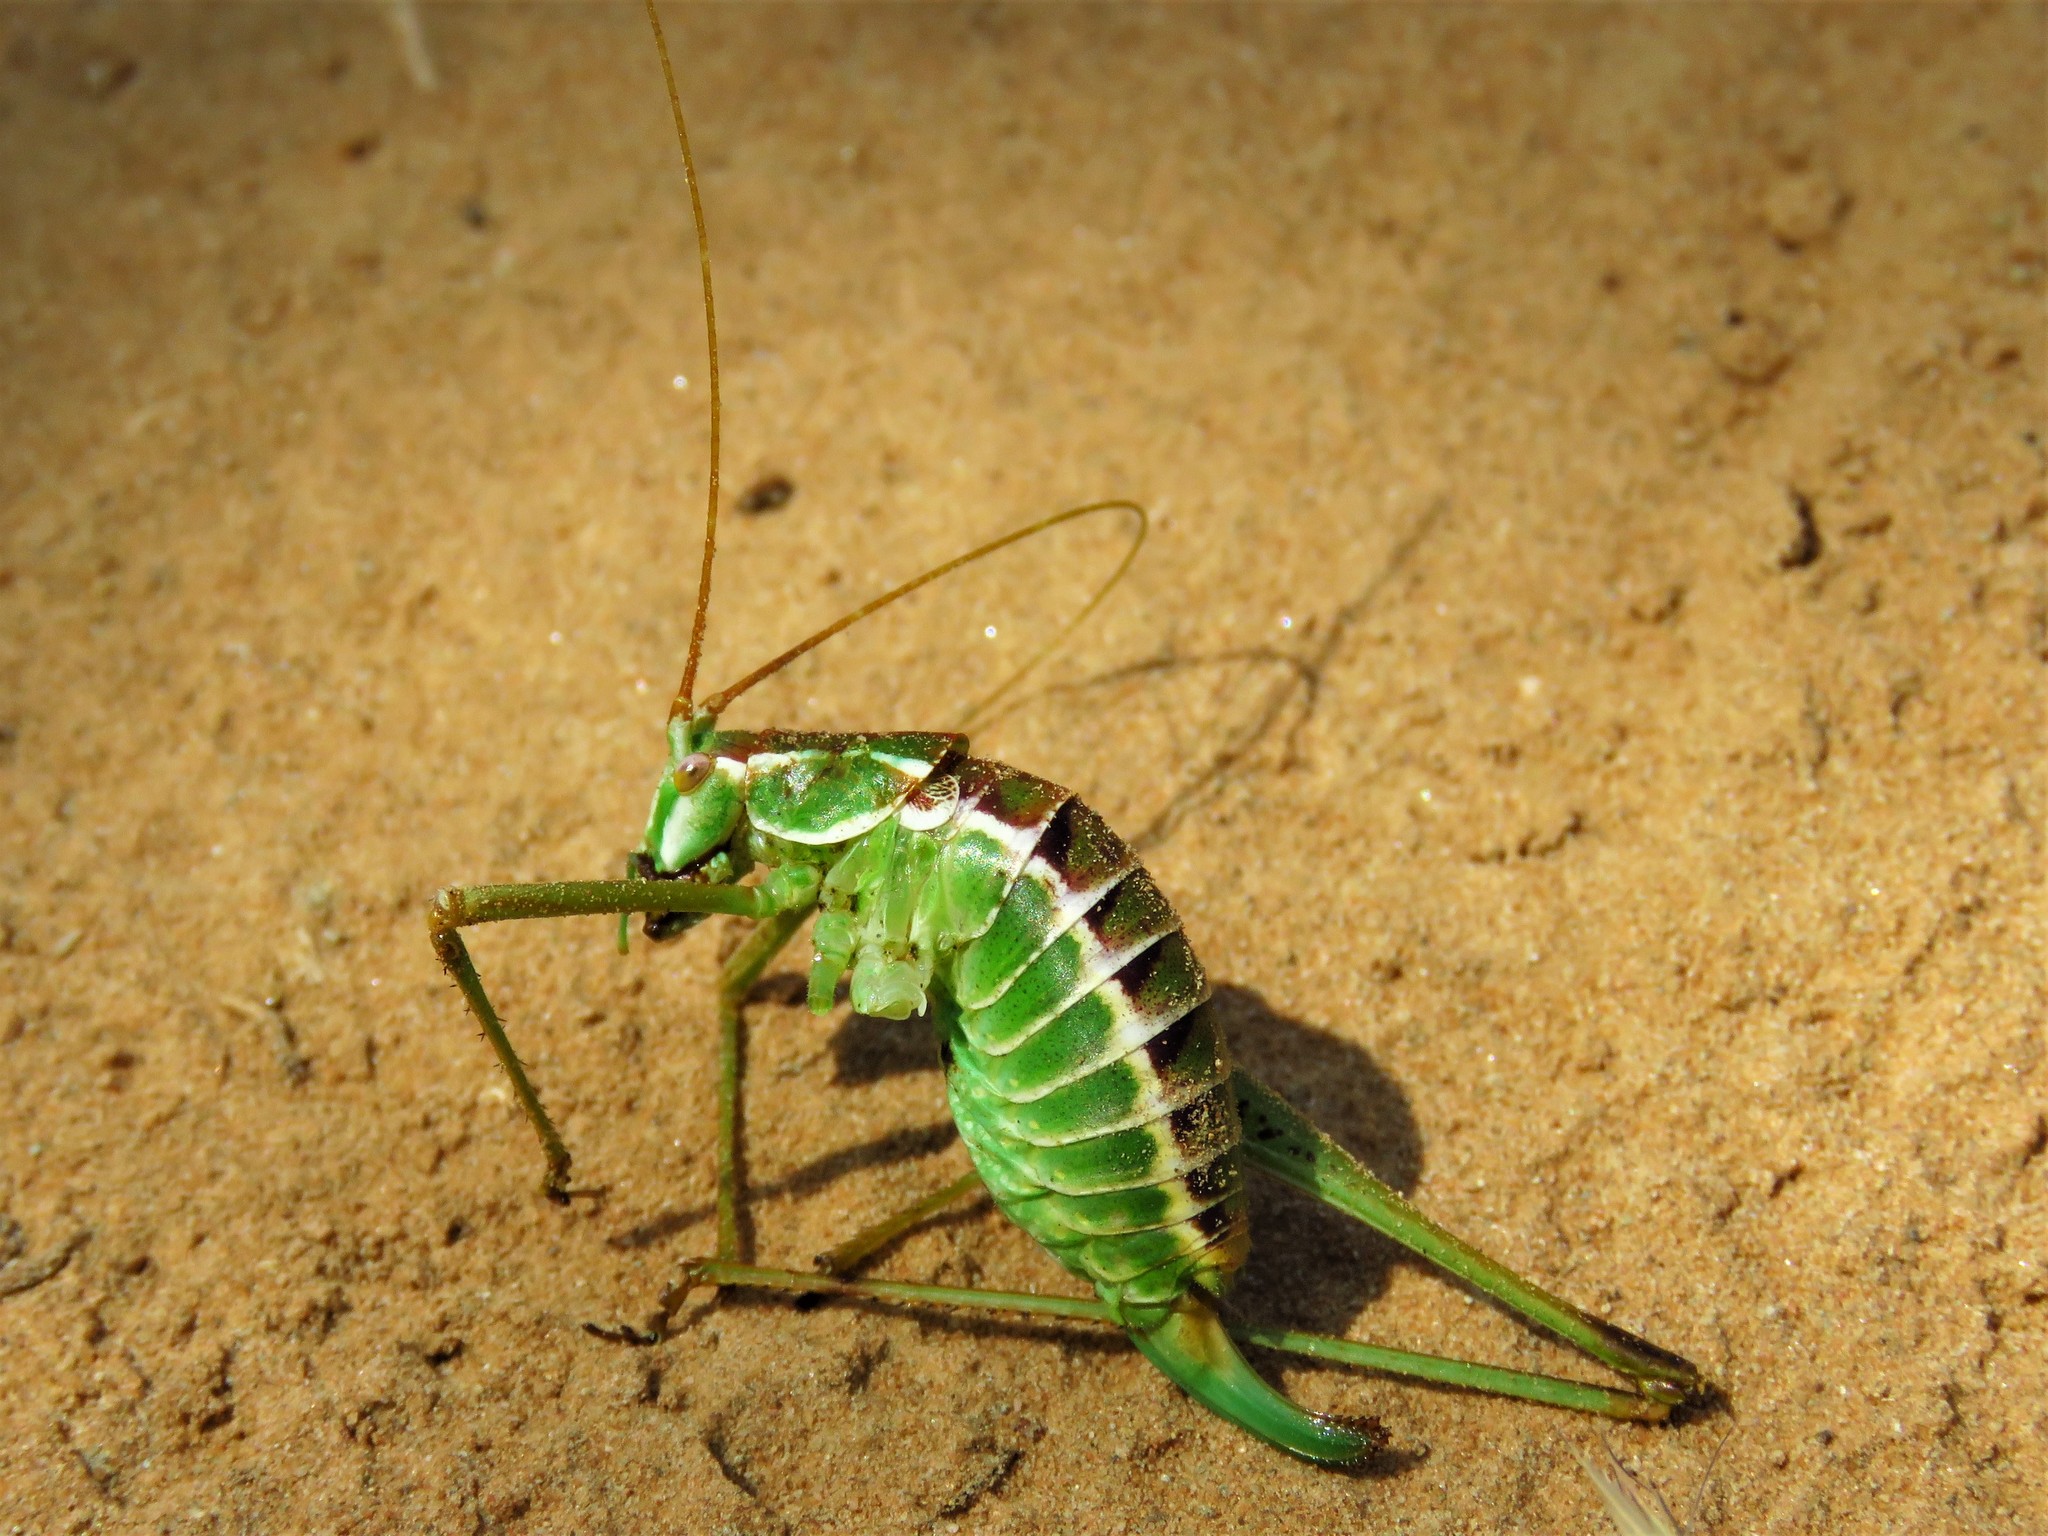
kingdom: Animalia
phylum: Arthropoda
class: Insecta
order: Orthoptera
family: Tettigoniidae
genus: Obolopteryx
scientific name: Obolopteryx brevihastata
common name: Common short-winged katydid
